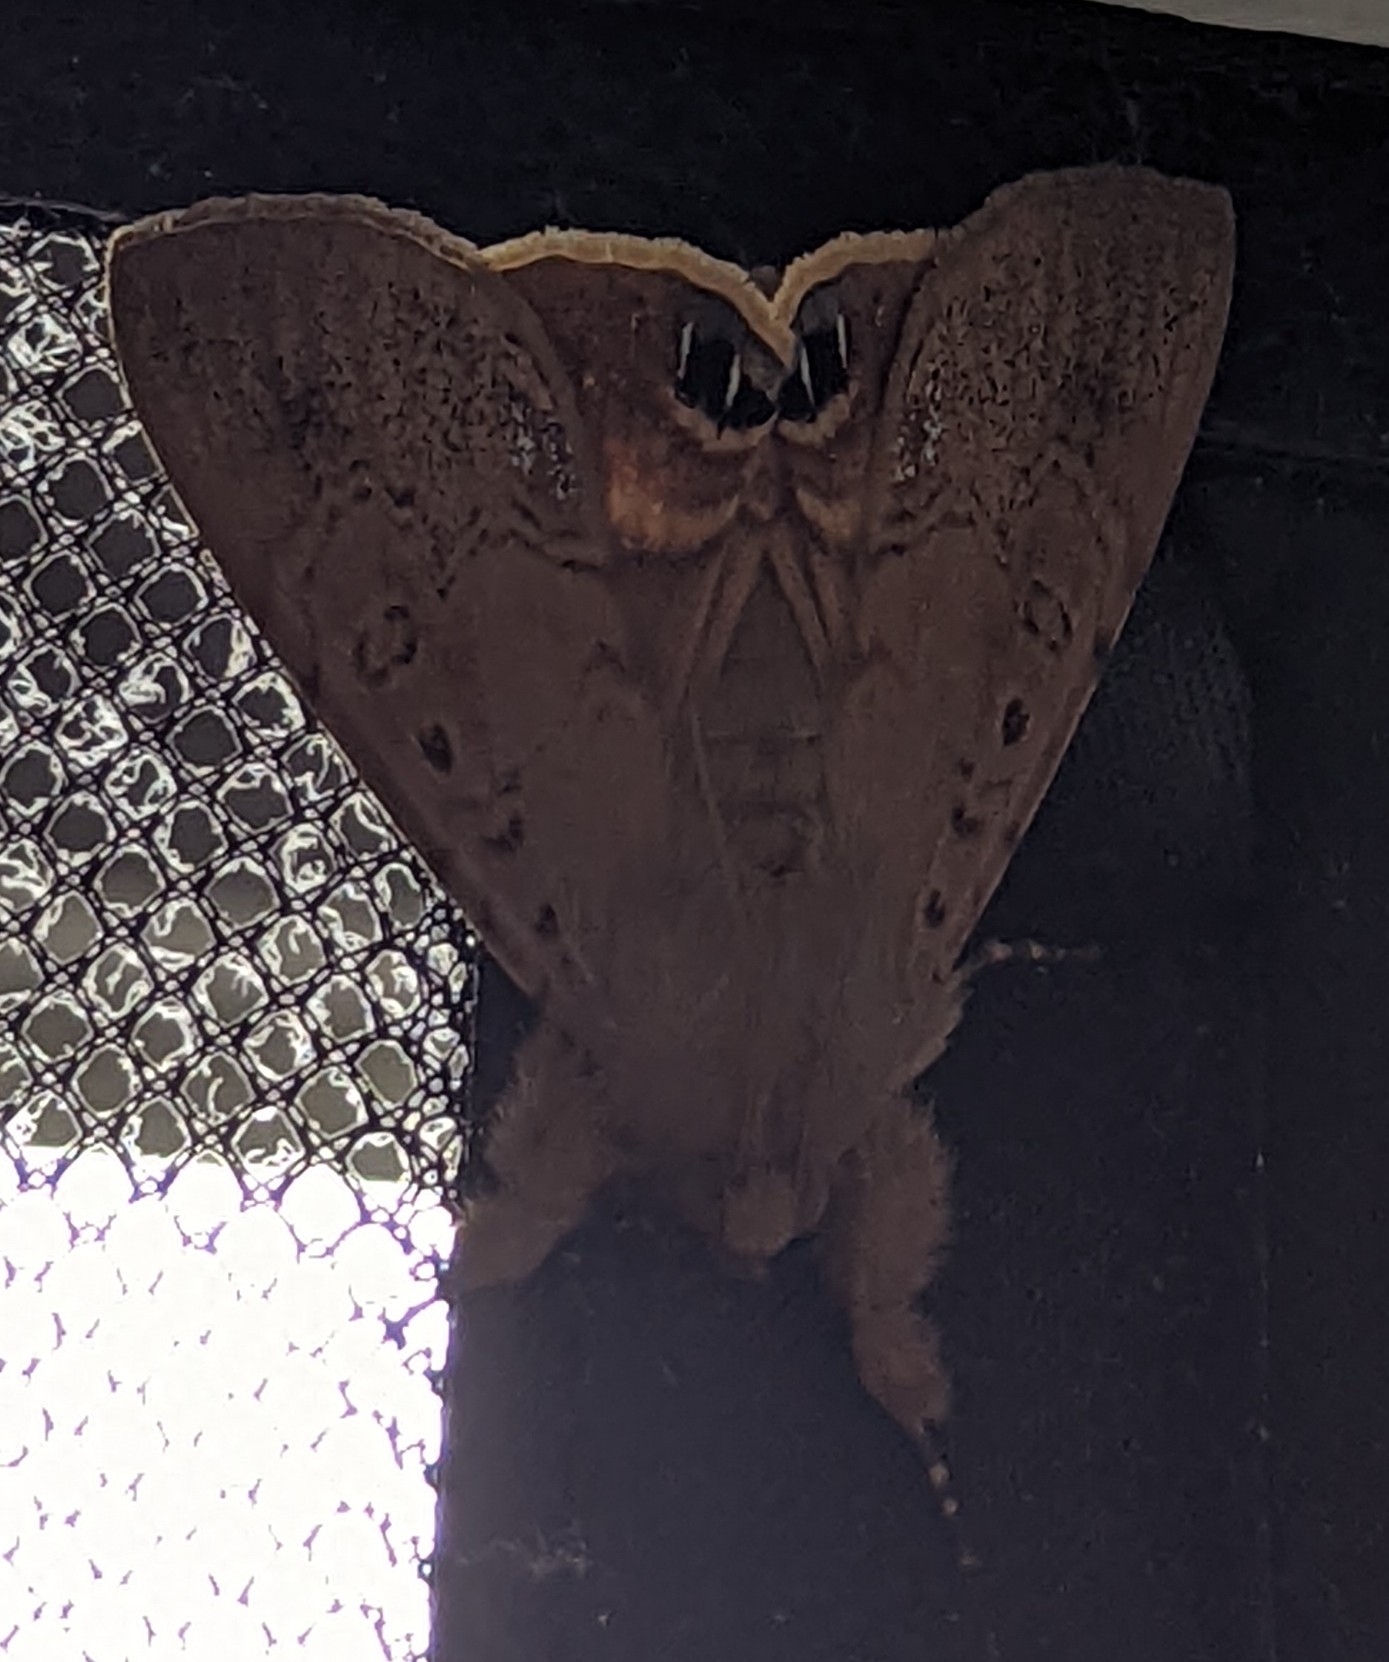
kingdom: Animalia
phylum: Arthropoda
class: Insecta
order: Lepidoptera
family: Erebidae
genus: Litoprosopus
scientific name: Litoprosopus futilis
